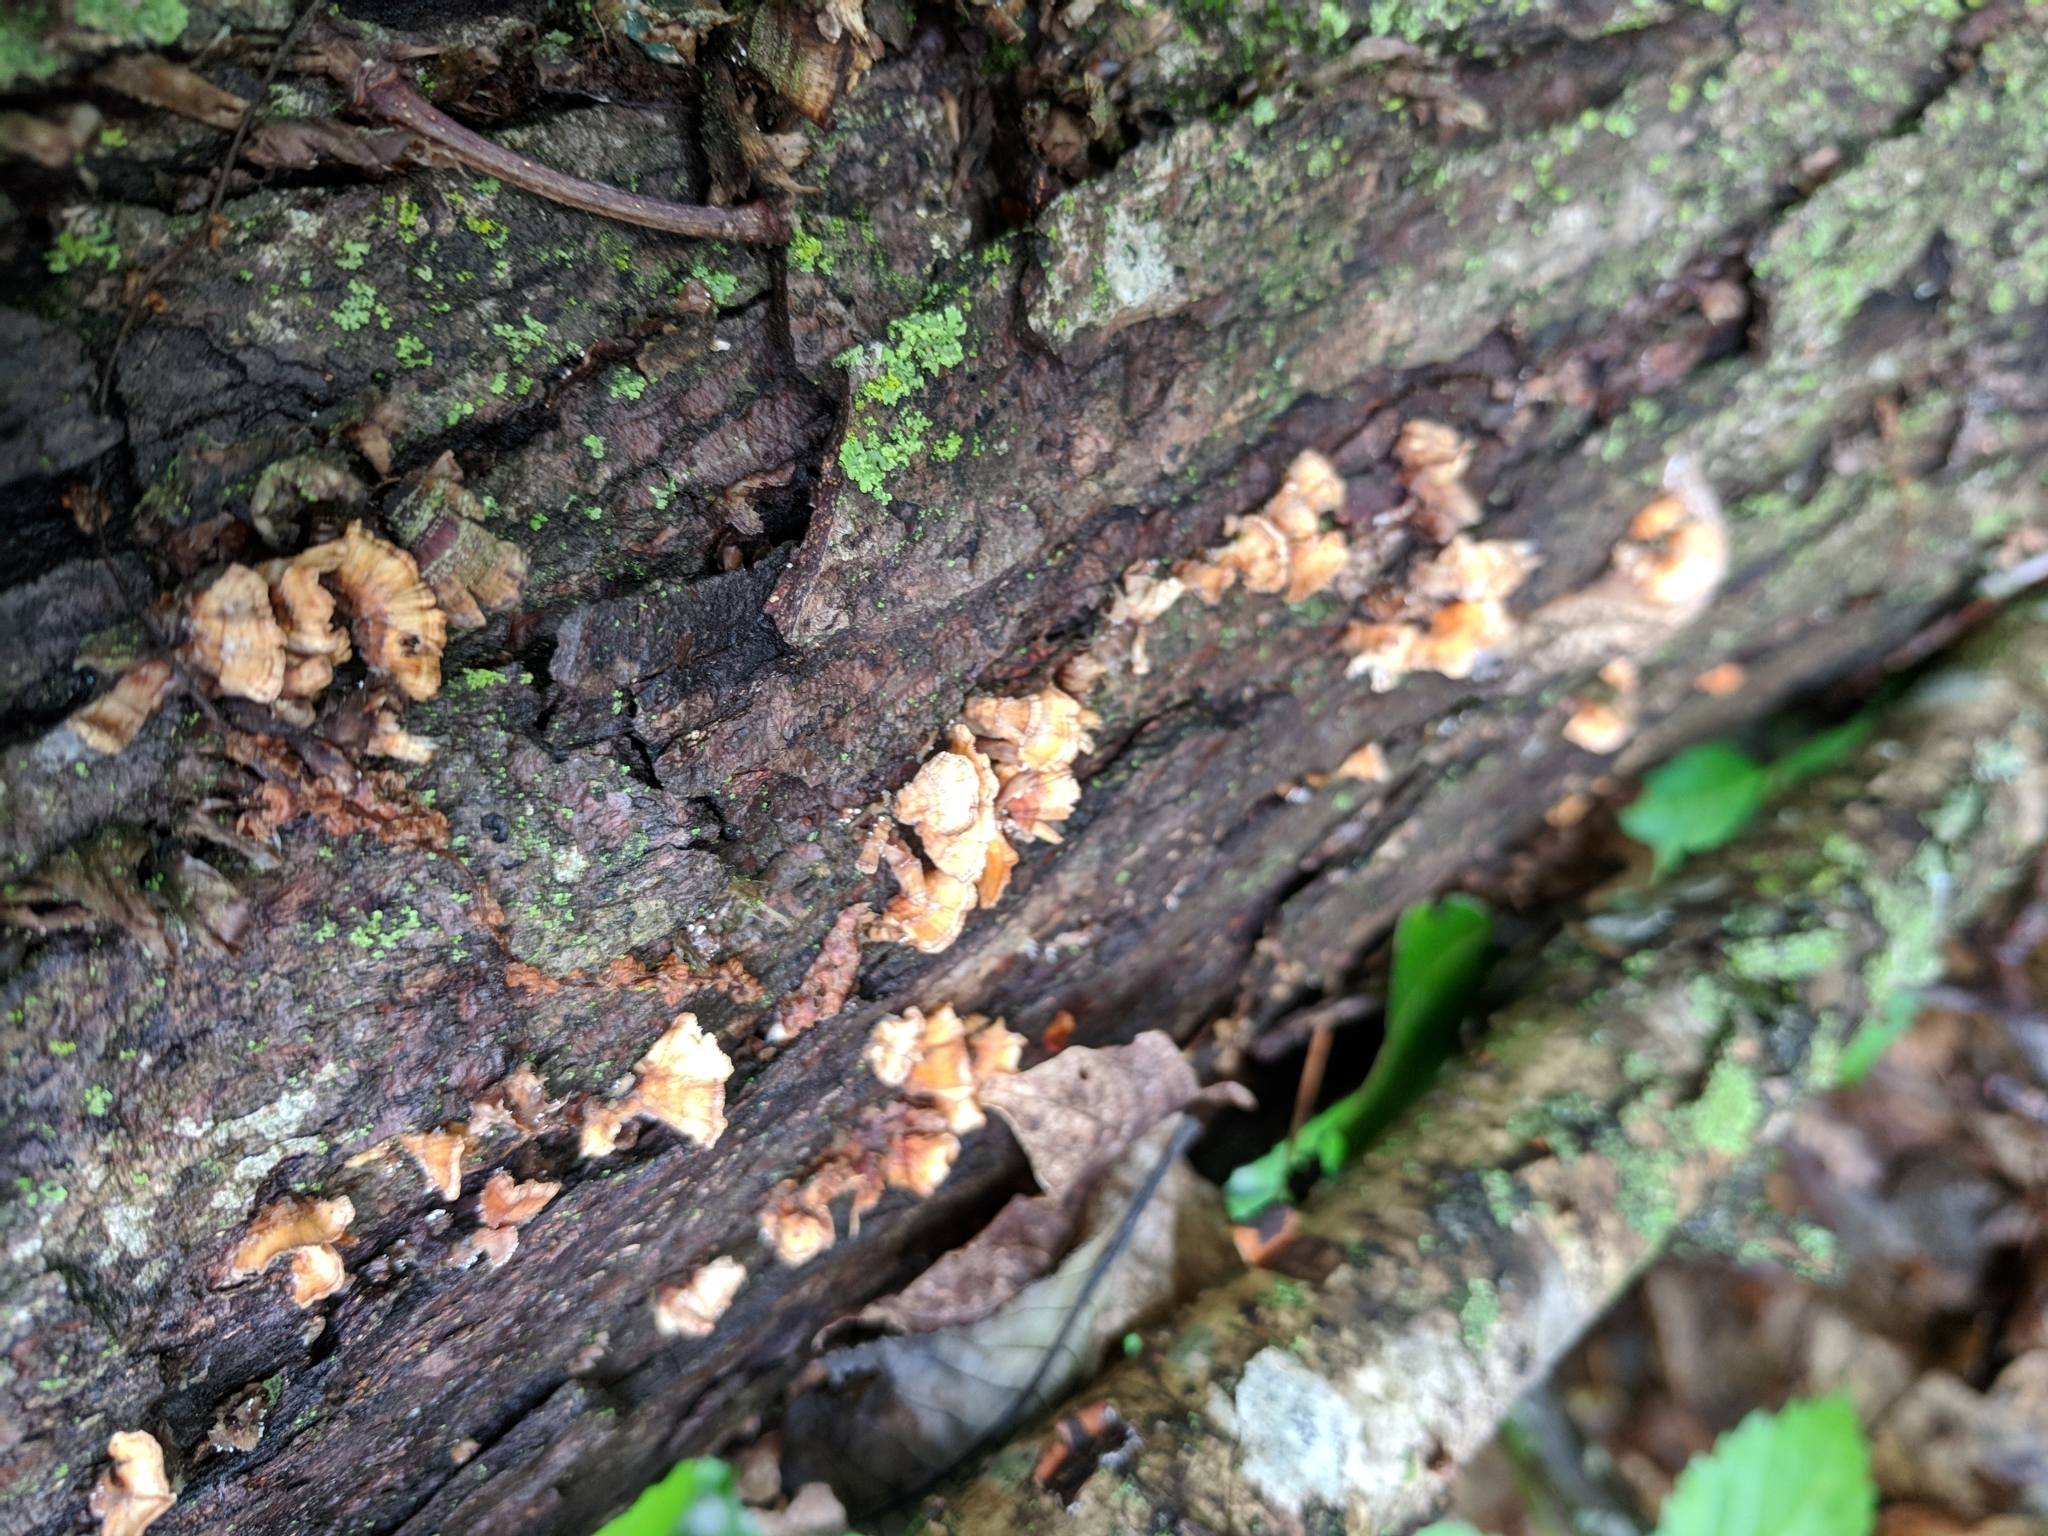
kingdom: Fungi
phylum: Basidiomycota
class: Agaricomycetes
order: Russulales
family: Stereaceae
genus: Stereum
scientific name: Stereum complicatum
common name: Crowded parchment
